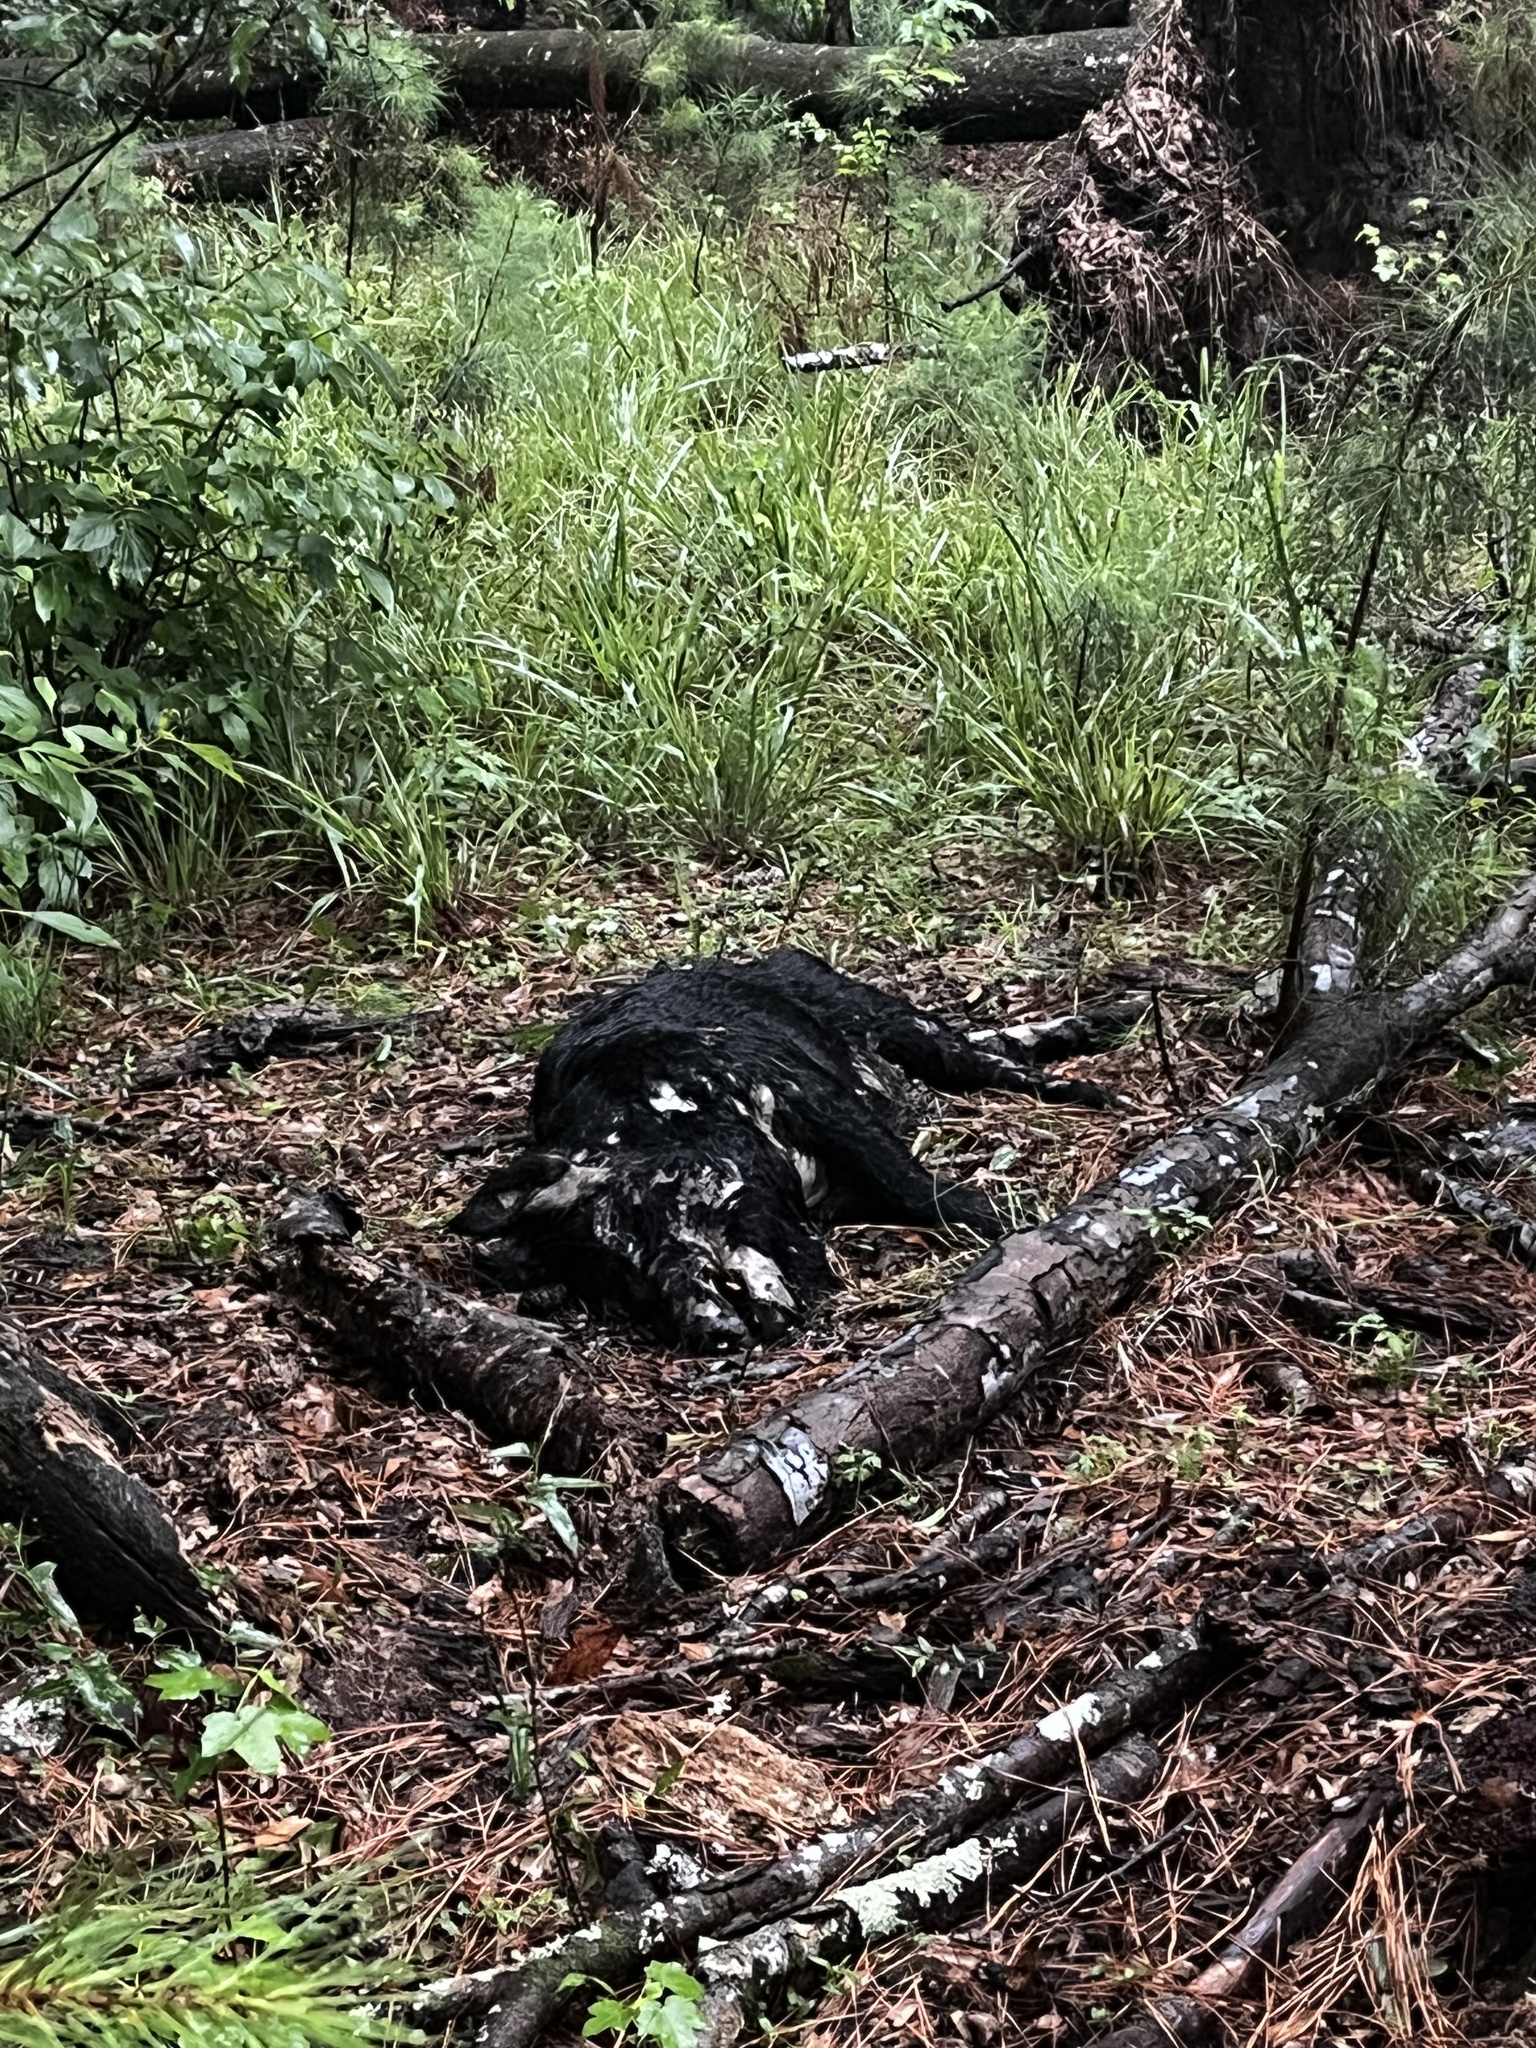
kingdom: Animalia
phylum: Chordata
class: Mammalia
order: Artiodactyla
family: Suidae
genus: Sus
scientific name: Sus scrofa
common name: Wild boar
